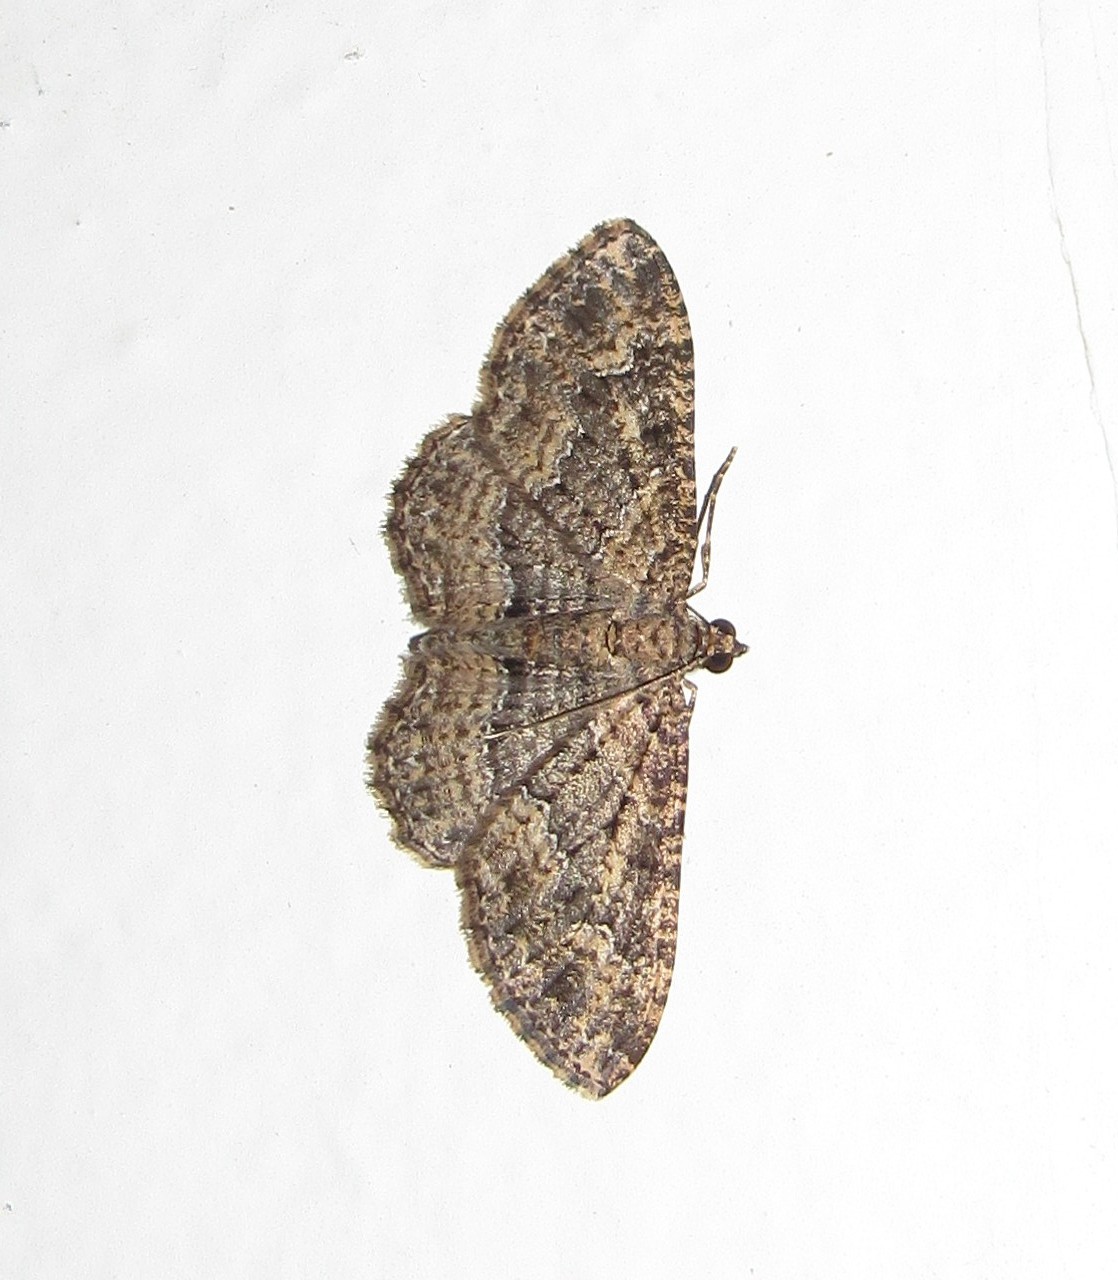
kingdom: Animalia
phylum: Arthropoda
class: Insecta
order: Lepidoptera
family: Geometridae
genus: Disclisioprocta
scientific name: Disclisioprocta stellata
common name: Somber carpet
